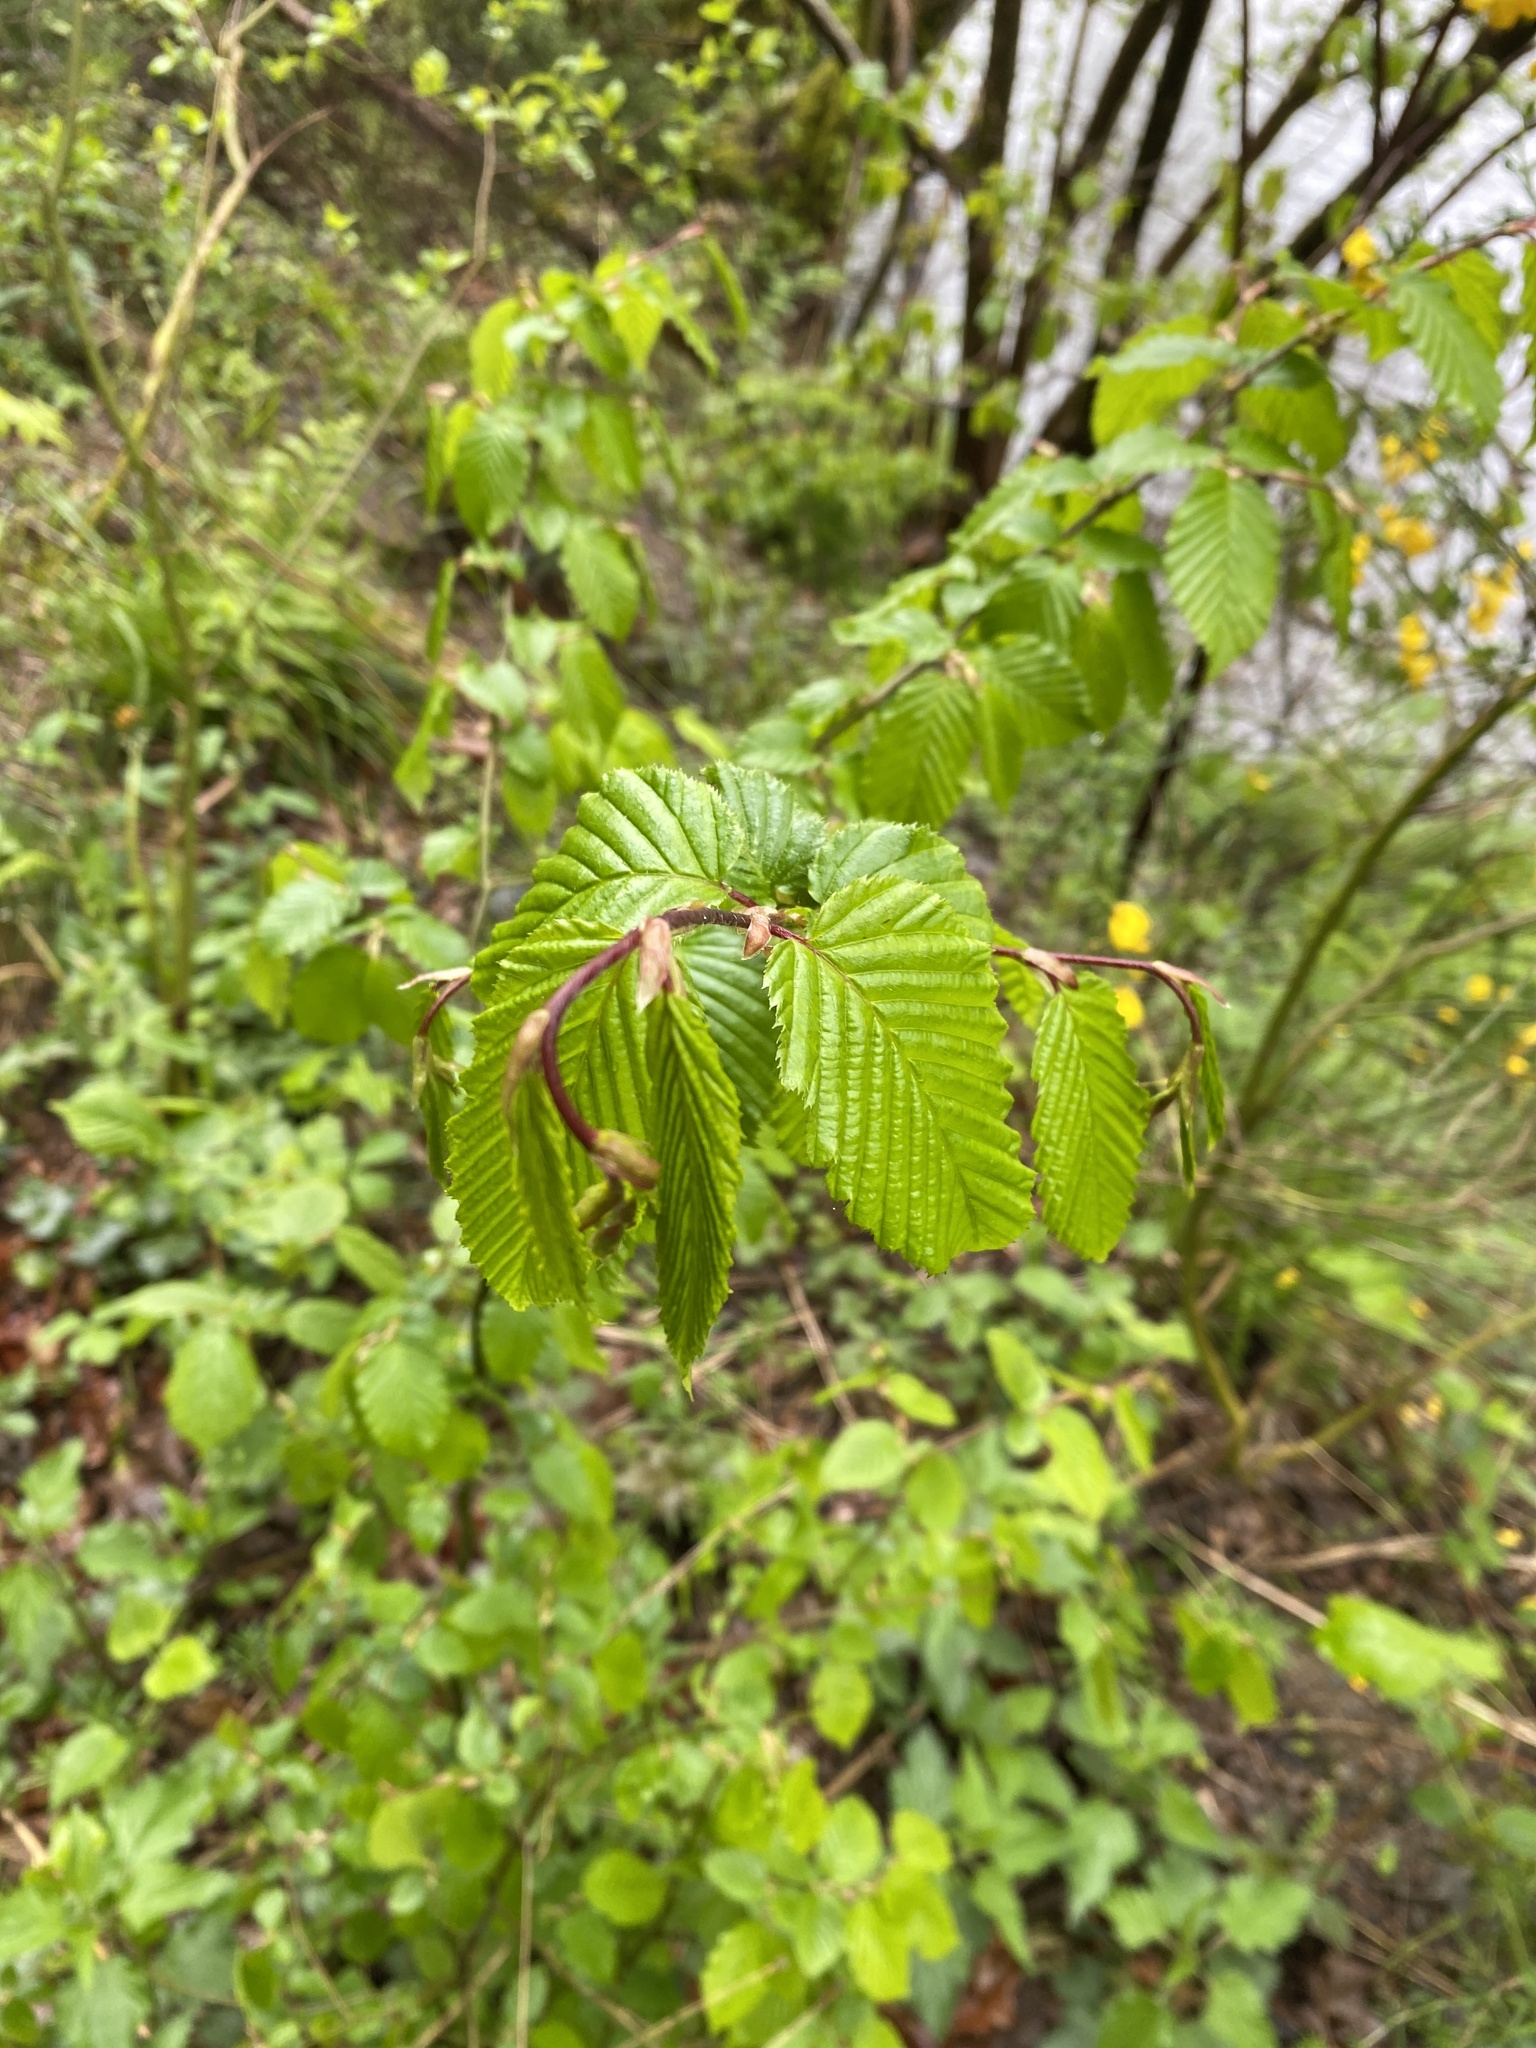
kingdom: Plantae
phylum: Tracheophyta
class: Magnoliopsida
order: Fagales
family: Betulaceae
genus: Carpinus
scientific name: Carpinus betulus
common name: Hornbeam
